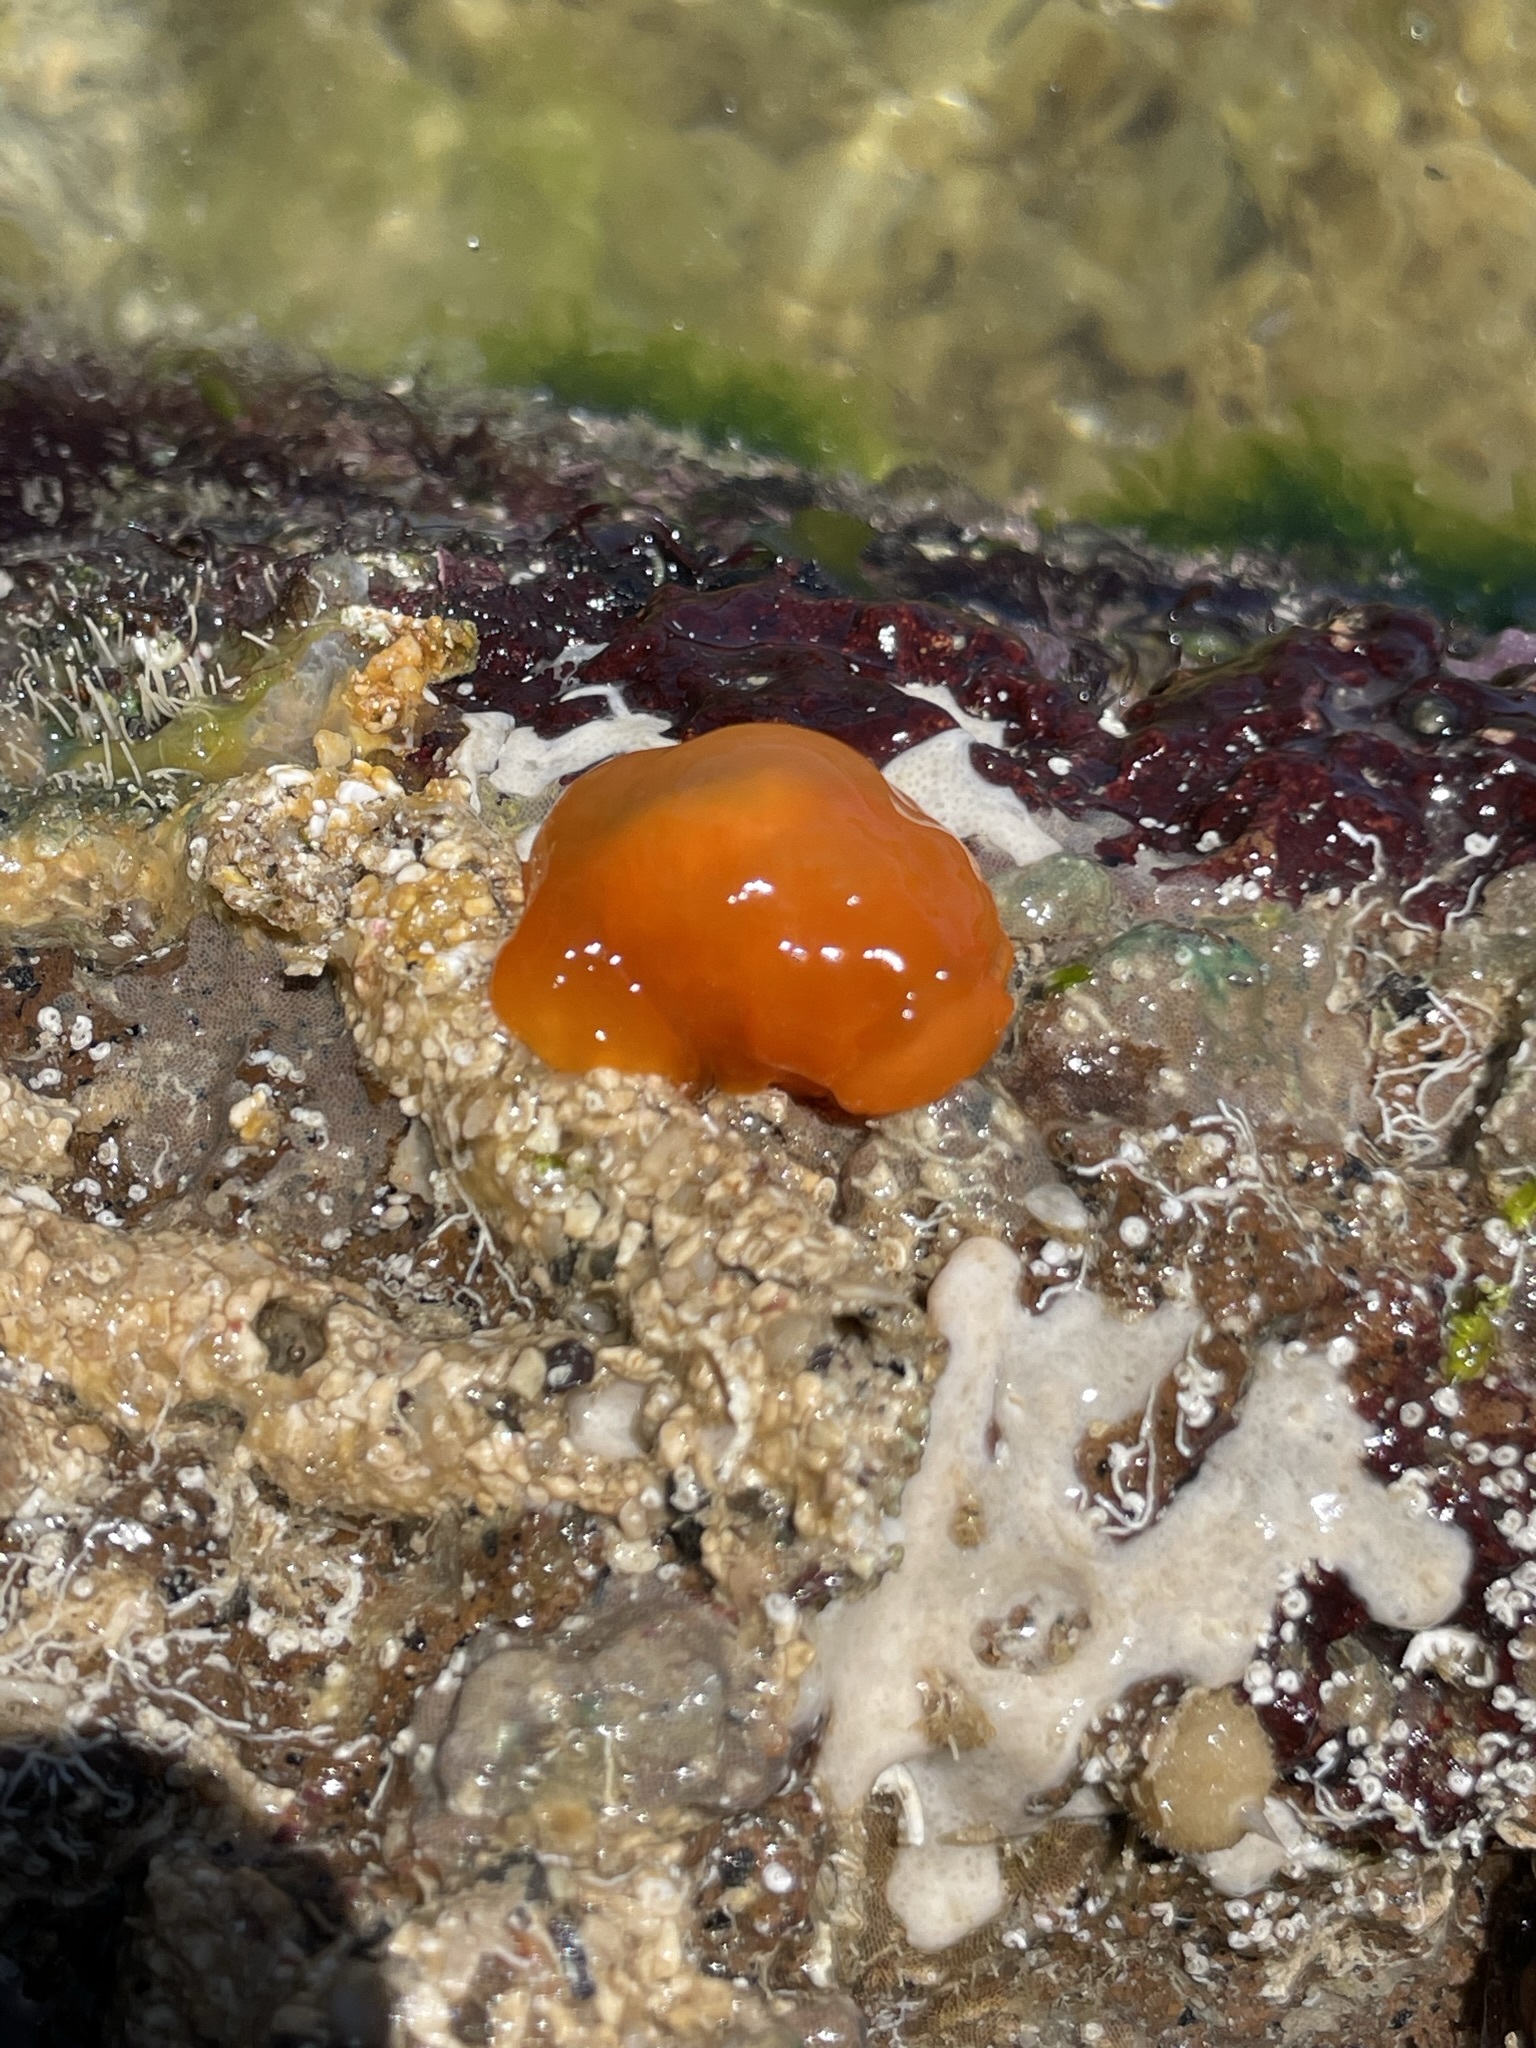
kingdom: Animalia
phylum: Mollusca
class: Gastropoda
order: Pleurobranchida
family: Pleurobranchidae
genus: Berthellina
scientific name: Berthellina ilisima
